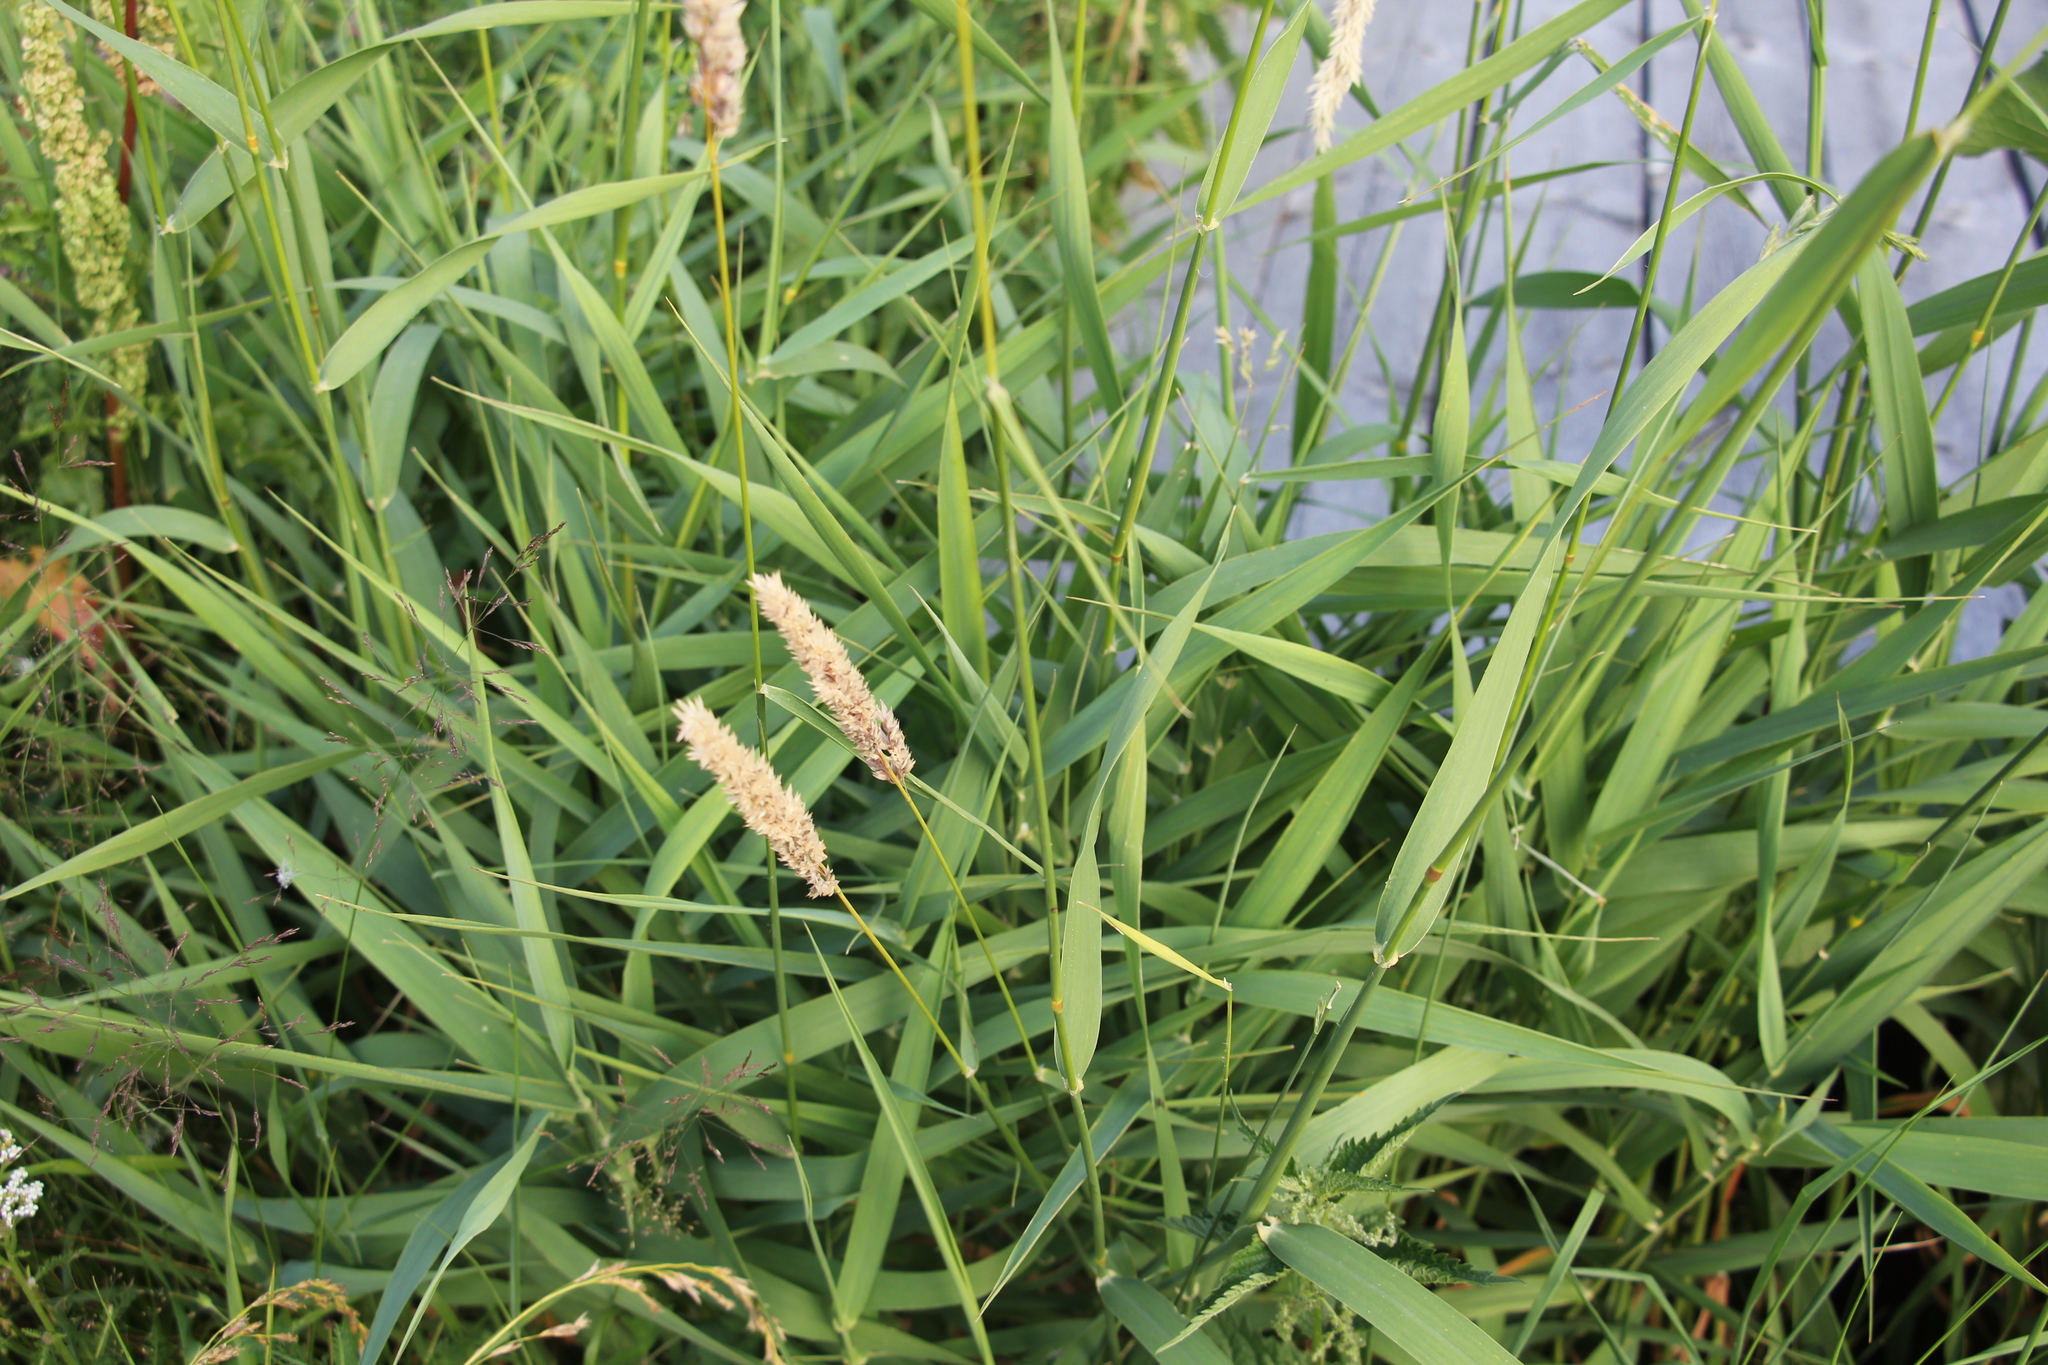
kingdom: Plantae
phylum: Tracheophyta
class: Liliopsida
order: Poales
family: Poaceae
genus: Phalaris
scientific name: Phalaris arundinacea
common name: Reed canary-grass
